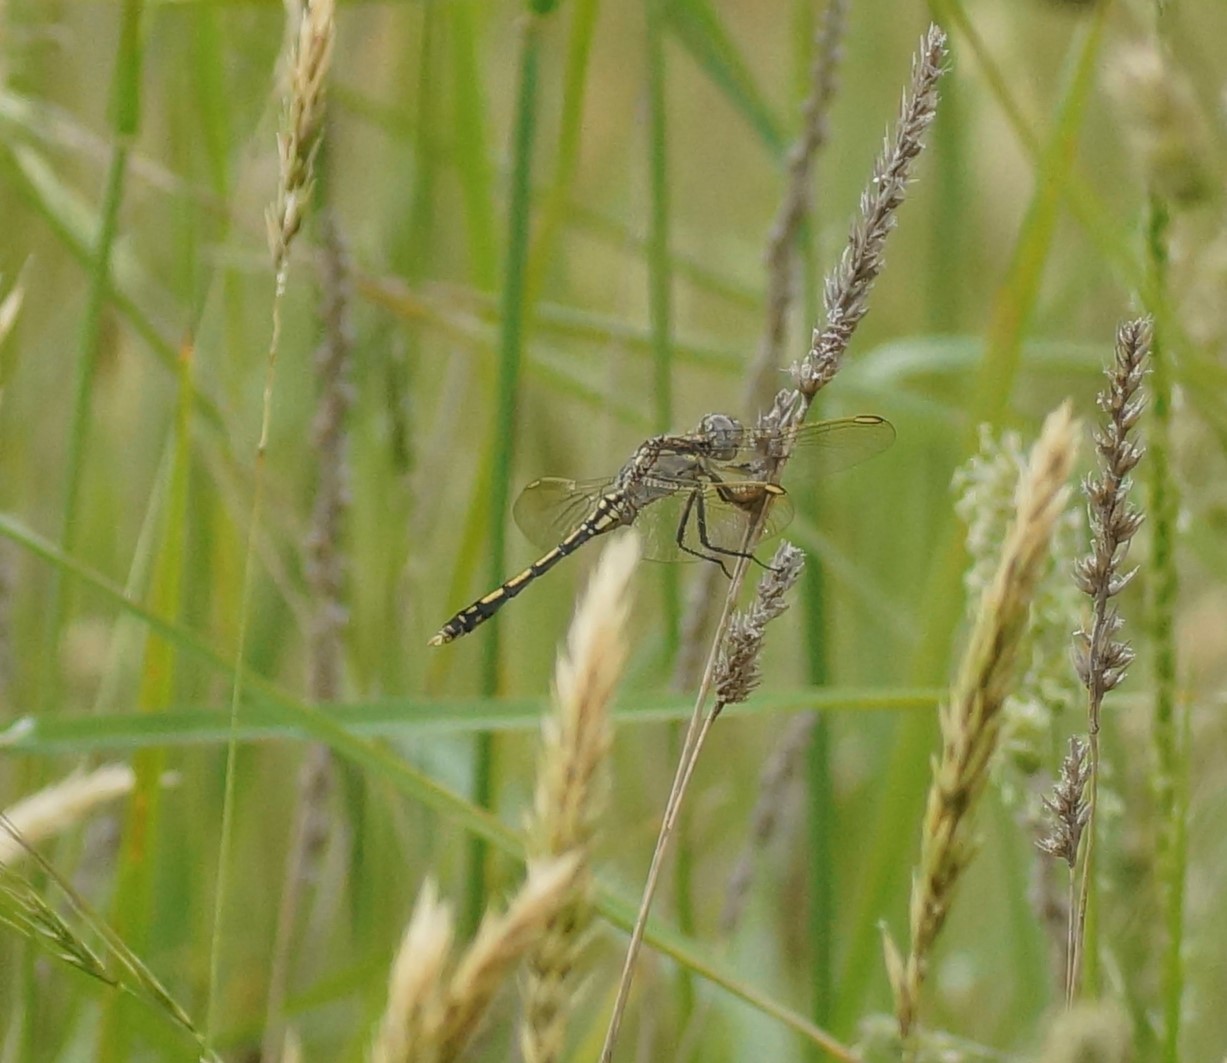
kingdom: Animalia
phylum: Arthropoda
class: Insecta
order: Odonata
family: Libellulidae
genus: Orthetrum
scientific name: Orthetrum caledonicum
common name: Blue skimmer
